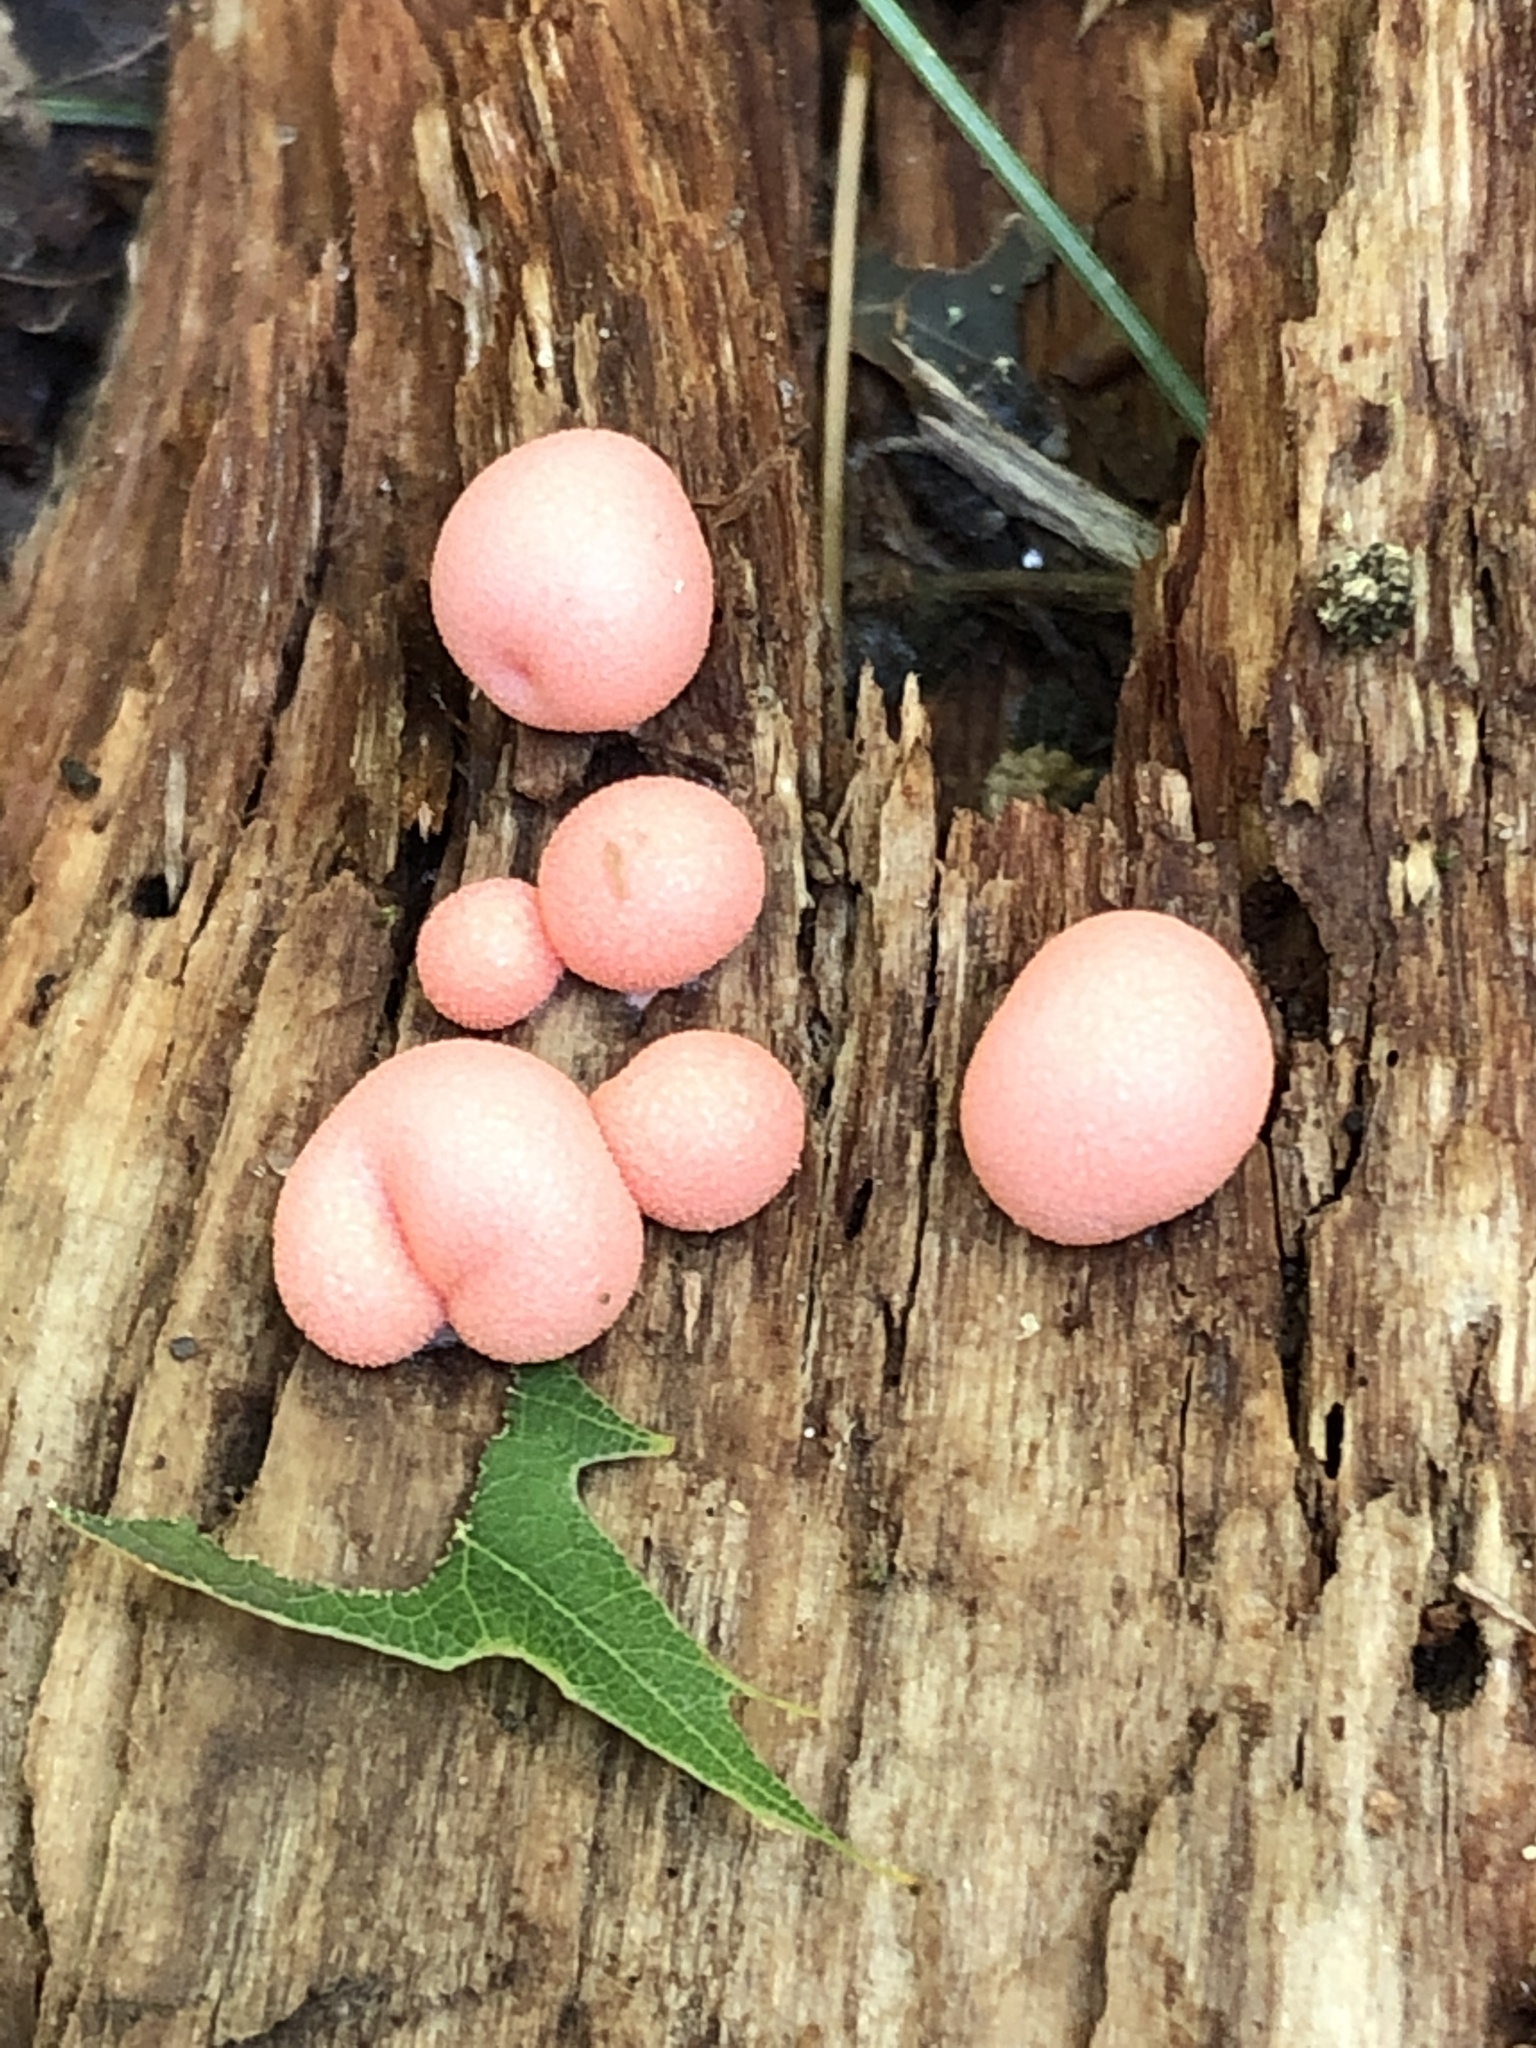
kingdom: Protozoa
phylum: Mycetozoa
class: Myxomycetes
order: Cribrariales
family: Tubiferaceae
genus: Lycogala
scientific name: Lycogala epidendrum
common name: Wolf's milk
